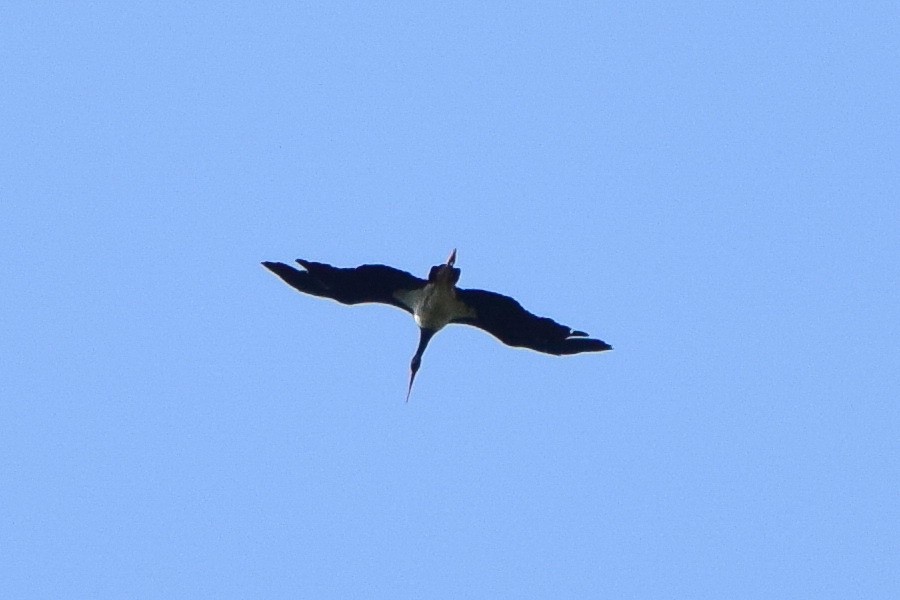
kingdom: Animalia
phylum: Chordata
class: Aves
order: Ciconiiformes
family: Ciconiidae
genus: Ciconia
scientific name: Ciconia nigra
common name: Black stork
